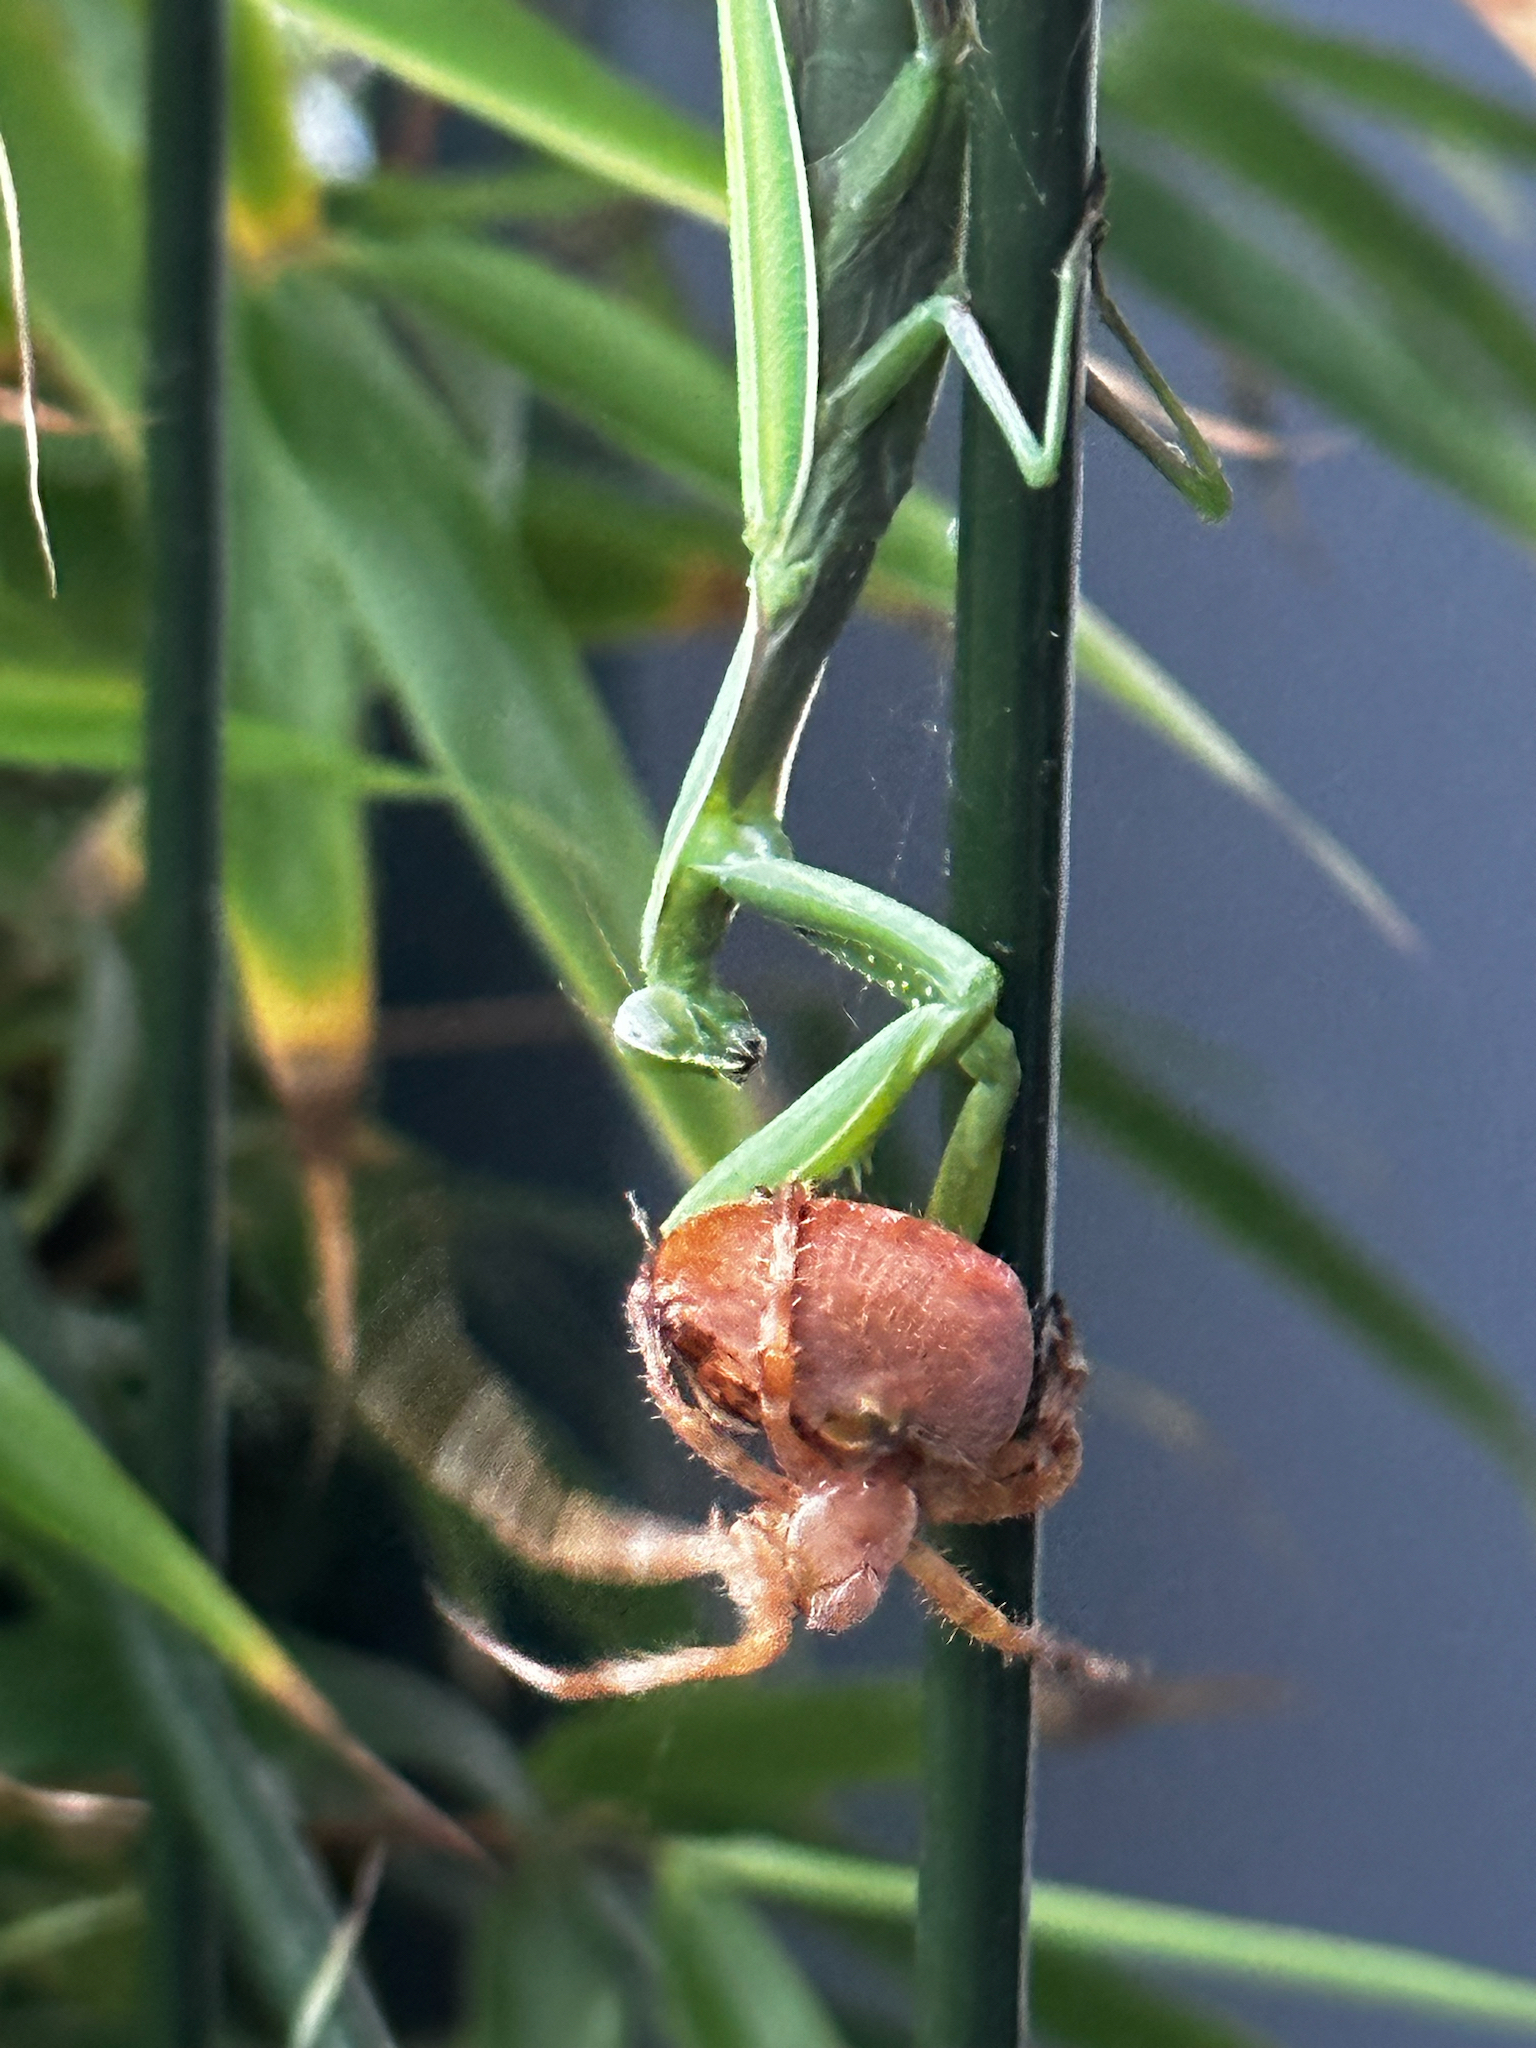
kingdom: Animalia
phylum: Arthropoda
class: Insecta
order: Mantodea
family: Mantidae
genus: Mantis
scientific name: Mantis religiosa
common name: Praying mantis
